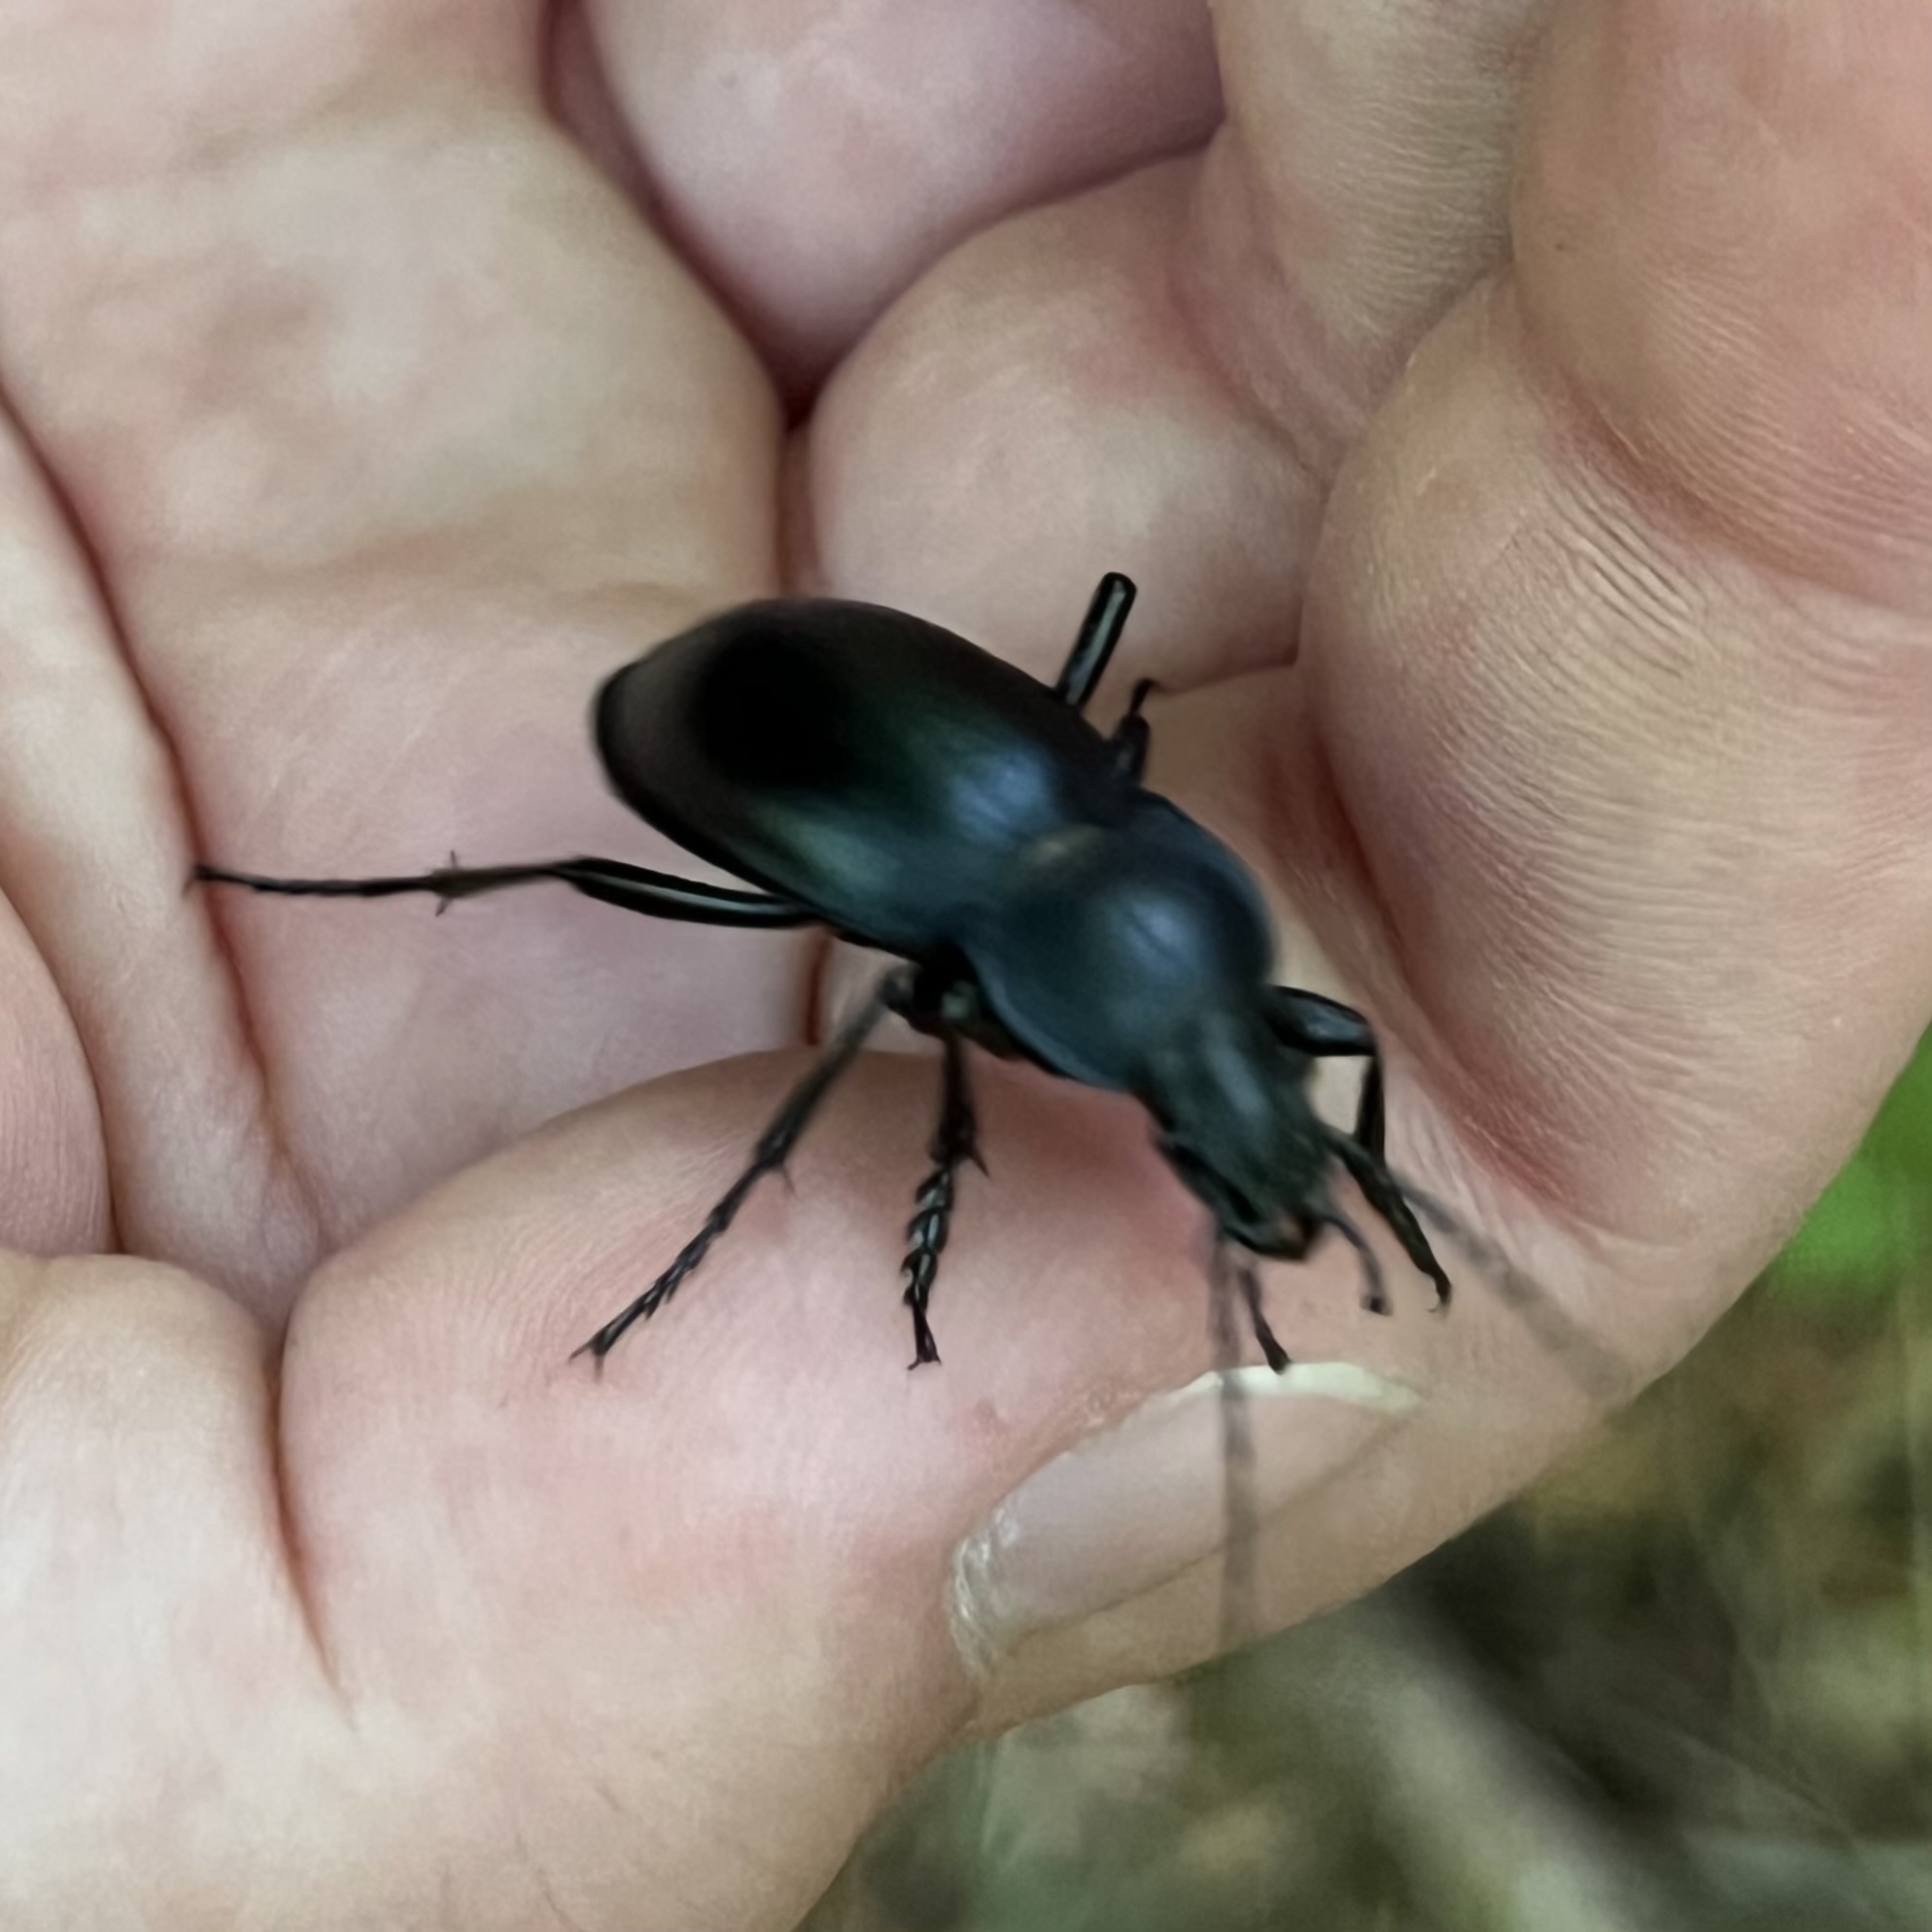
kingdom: Animalia
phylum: Arthropoda
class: Insecta
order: Coleoptera
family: Carabidae
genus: Carabus
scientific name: Carabus glabratus
